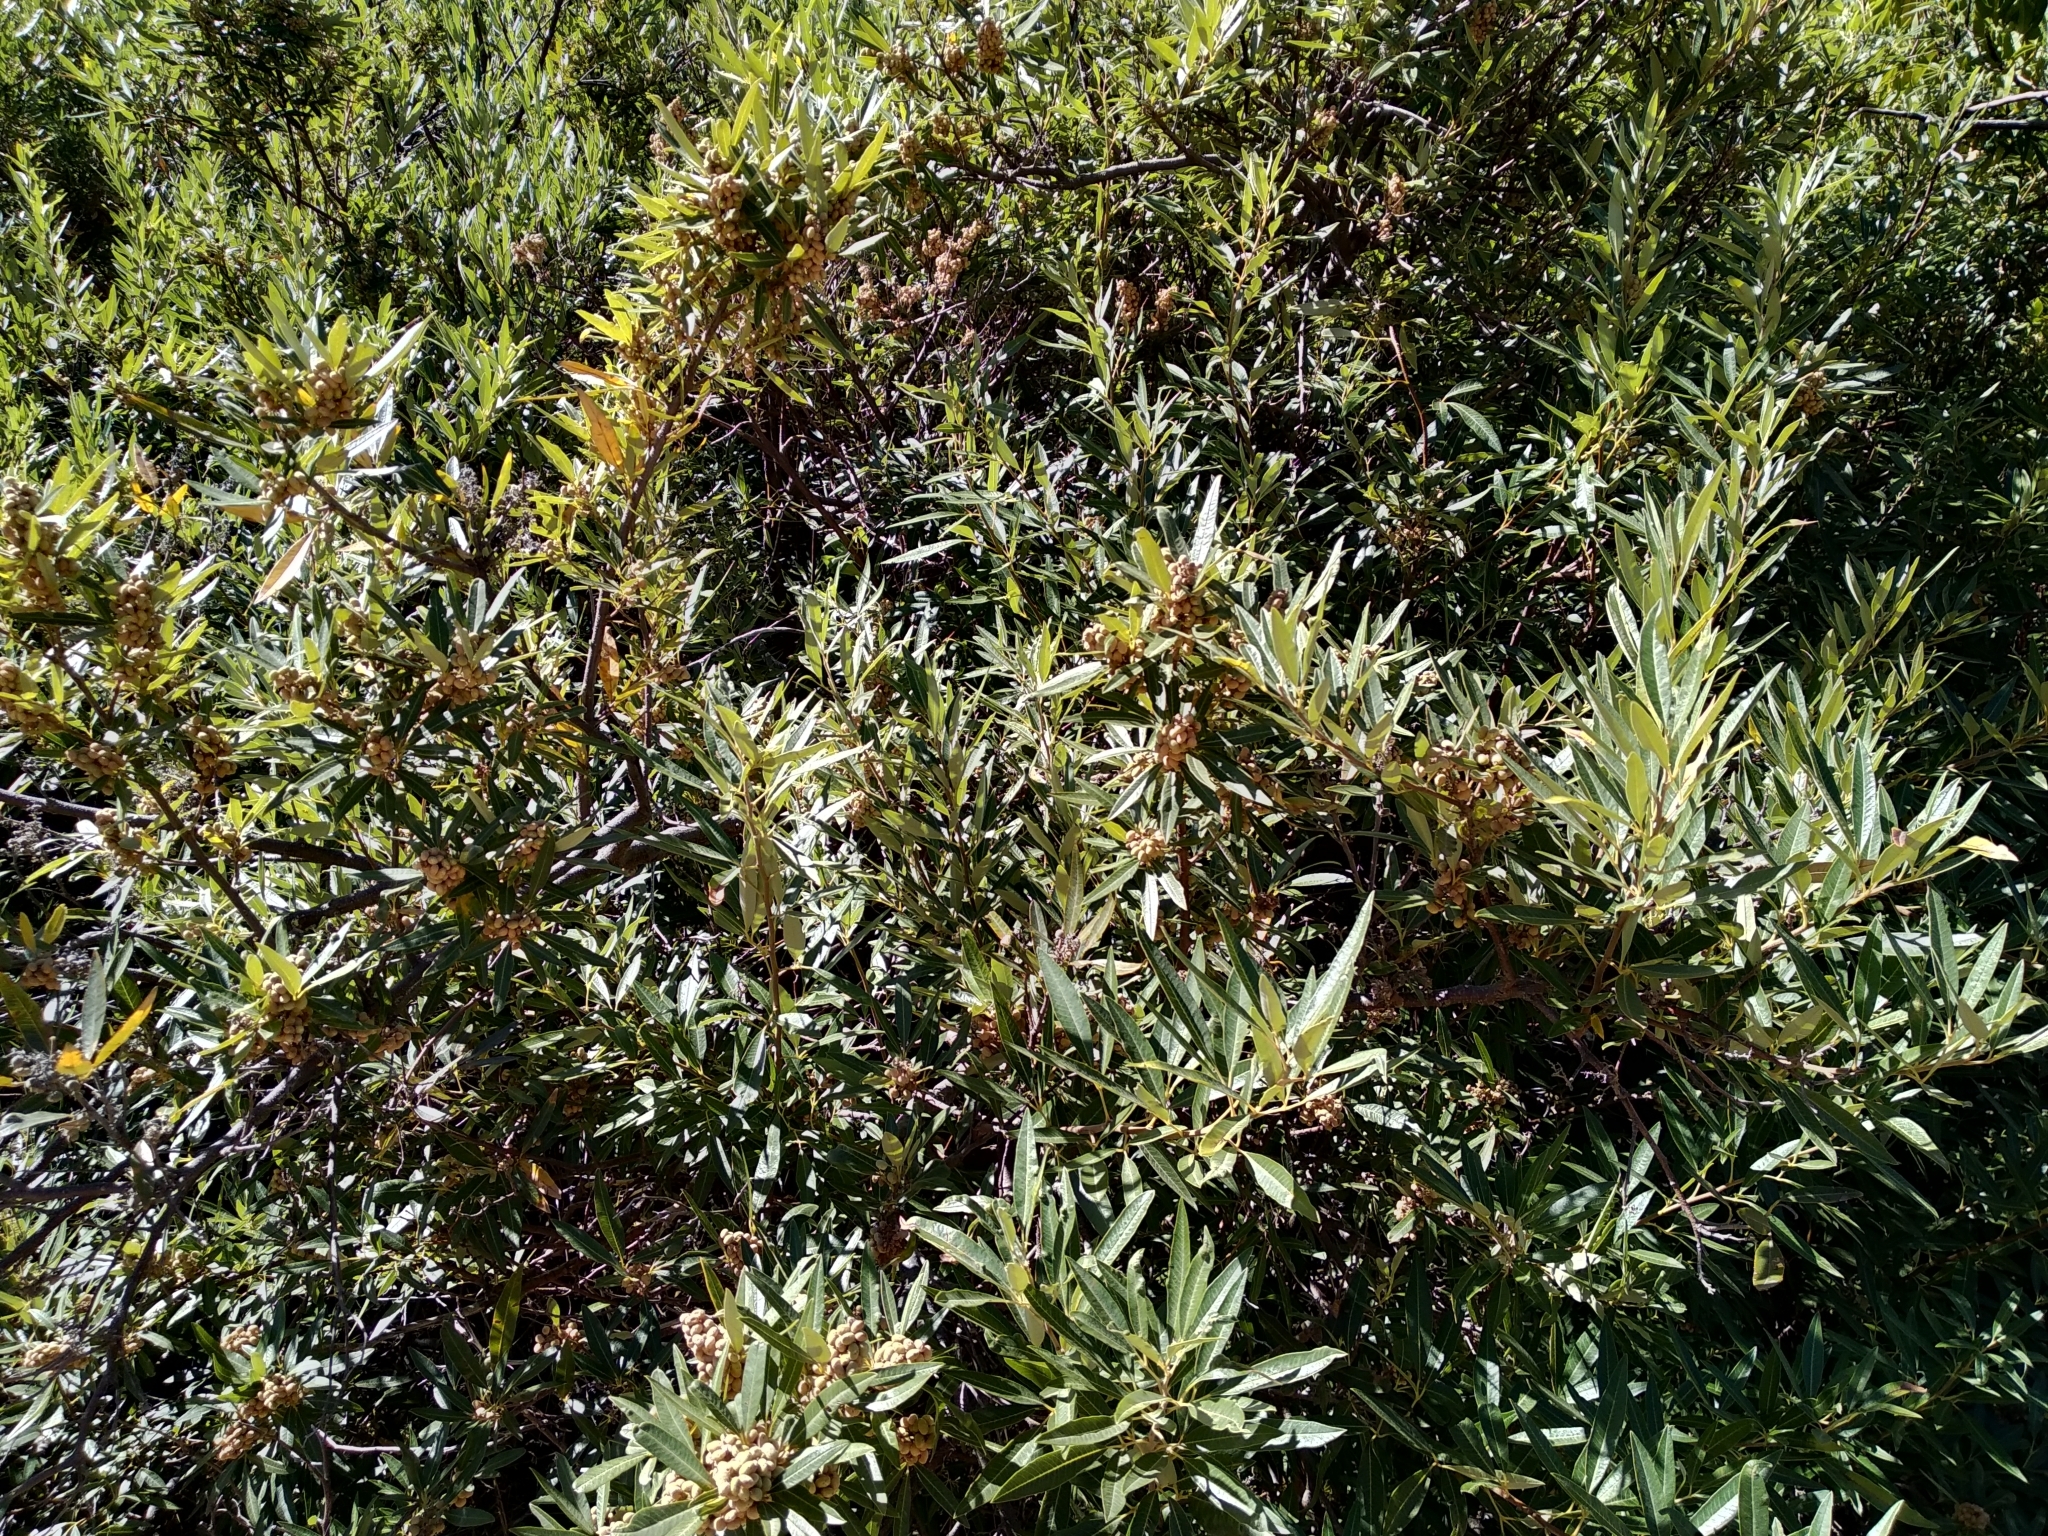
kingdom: Plantae
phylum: Tracheophyta
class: Magnoliopsida
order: Sapindales
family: Anacardiaceae
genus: Searsia
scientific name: Searsia angustifolia
